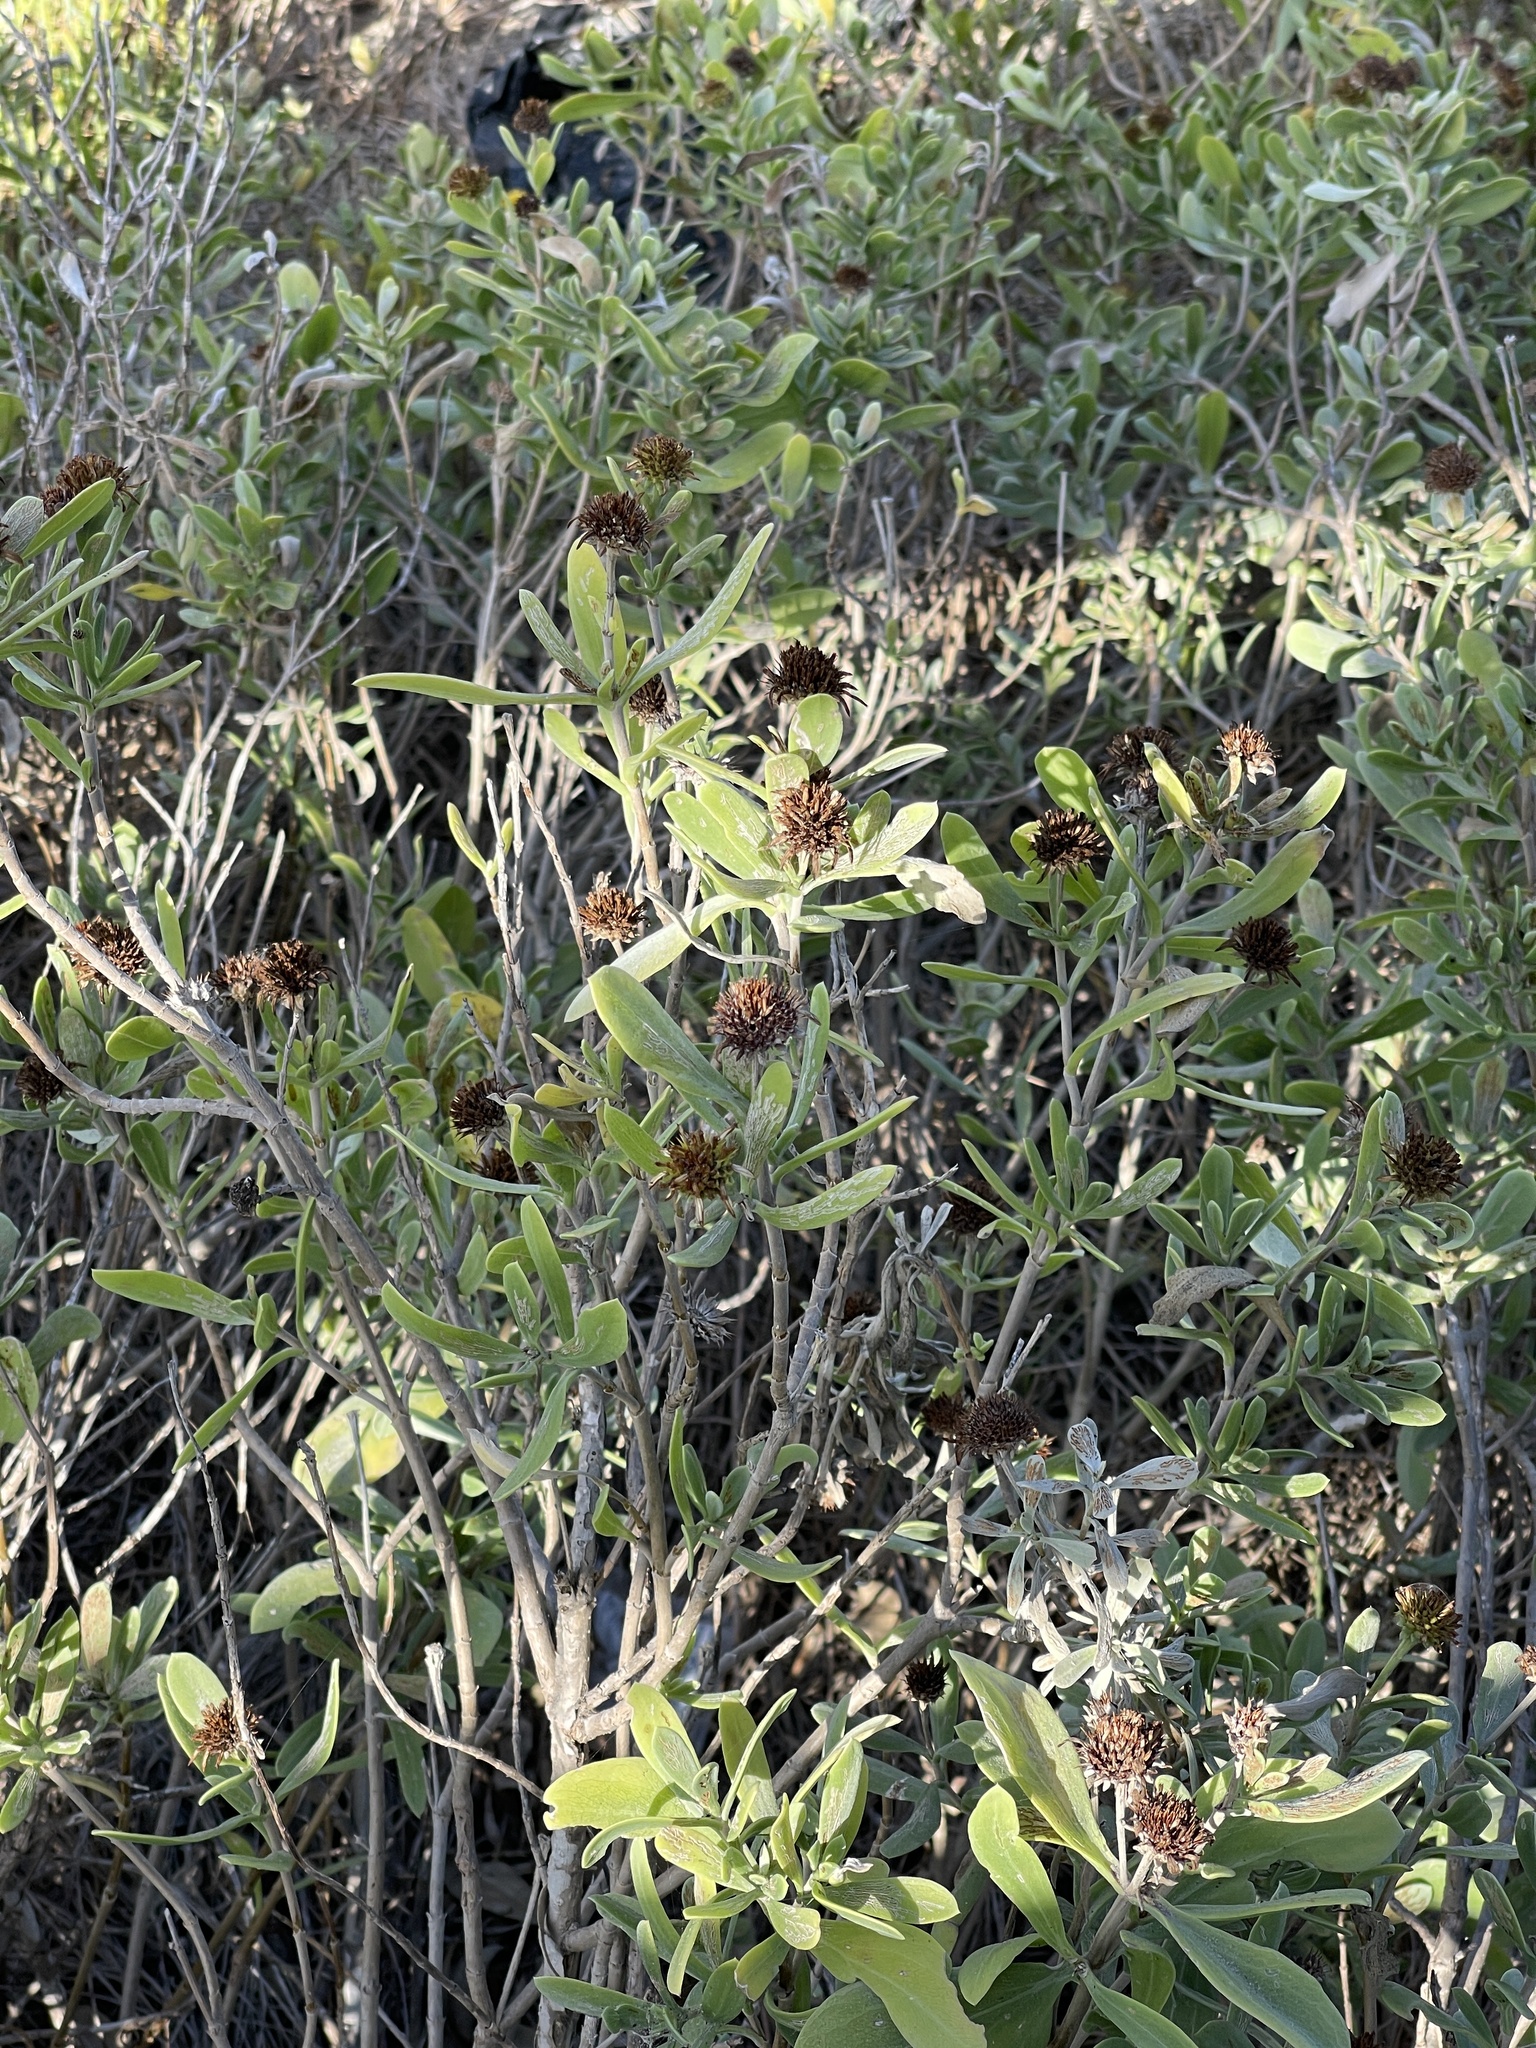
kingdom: Plantae
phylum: Tracheophyta
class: Magnoliopsida
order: Asterales
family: Asteraceae
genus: Borrichia
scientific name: Borrichia frutescens
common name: Sea oxeye
